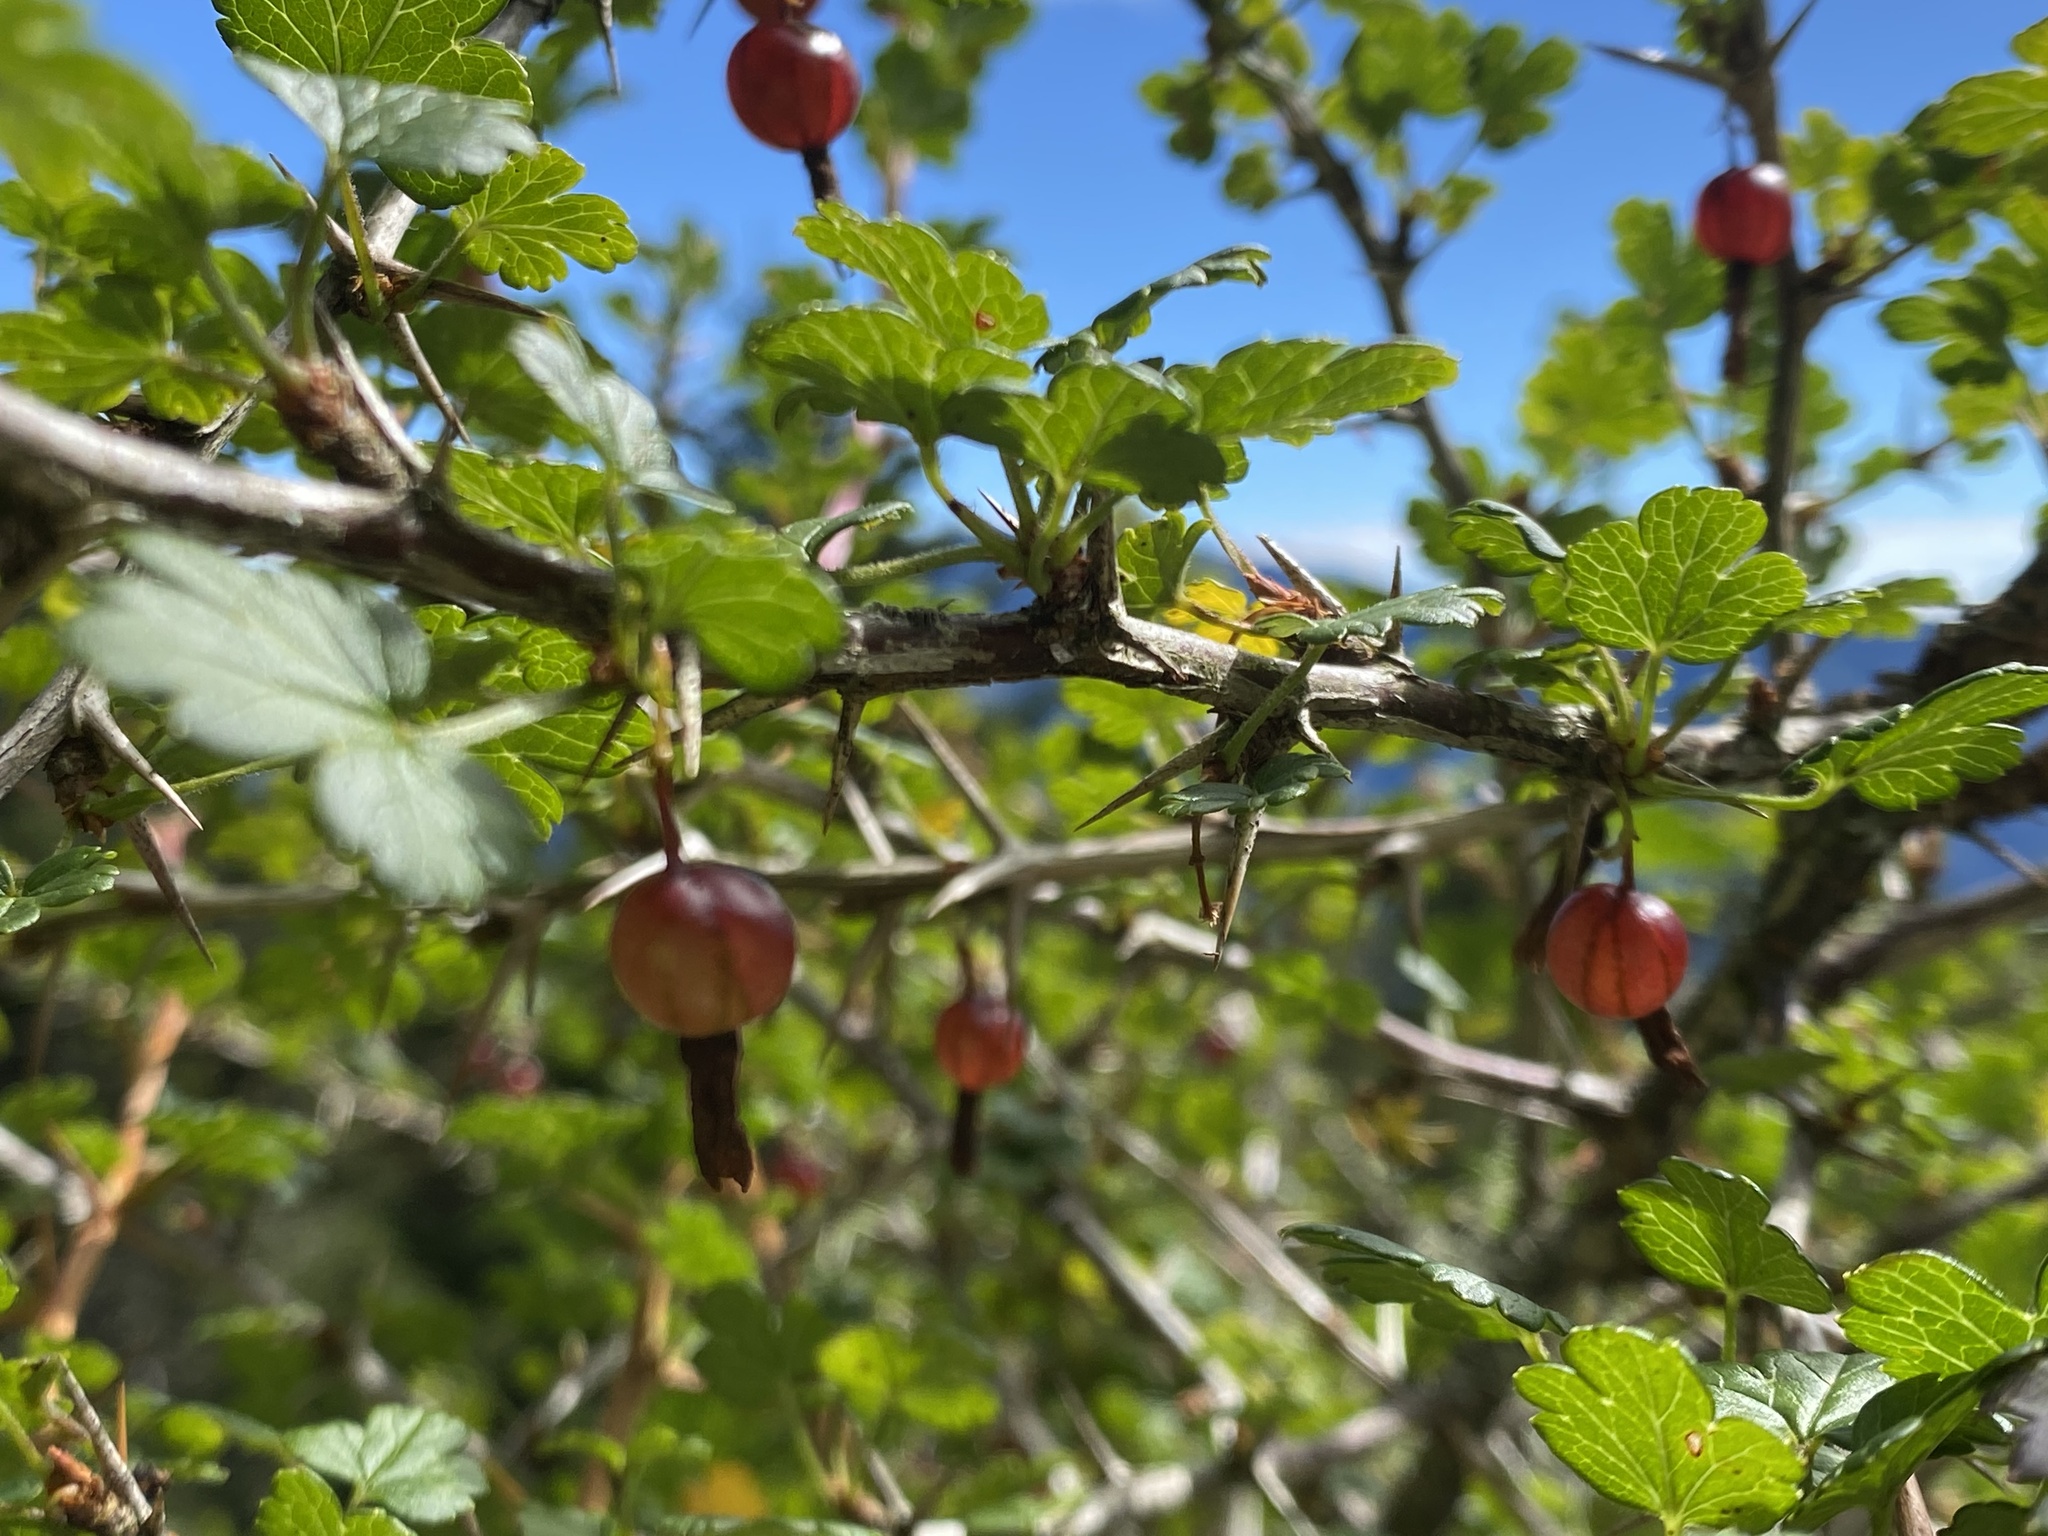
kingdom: Plantae
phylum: Tracheophyta
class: Magnoliopsida
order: Saxifragales
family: Grossulariaceae
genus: Ribes
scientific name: Ribes formosanum
